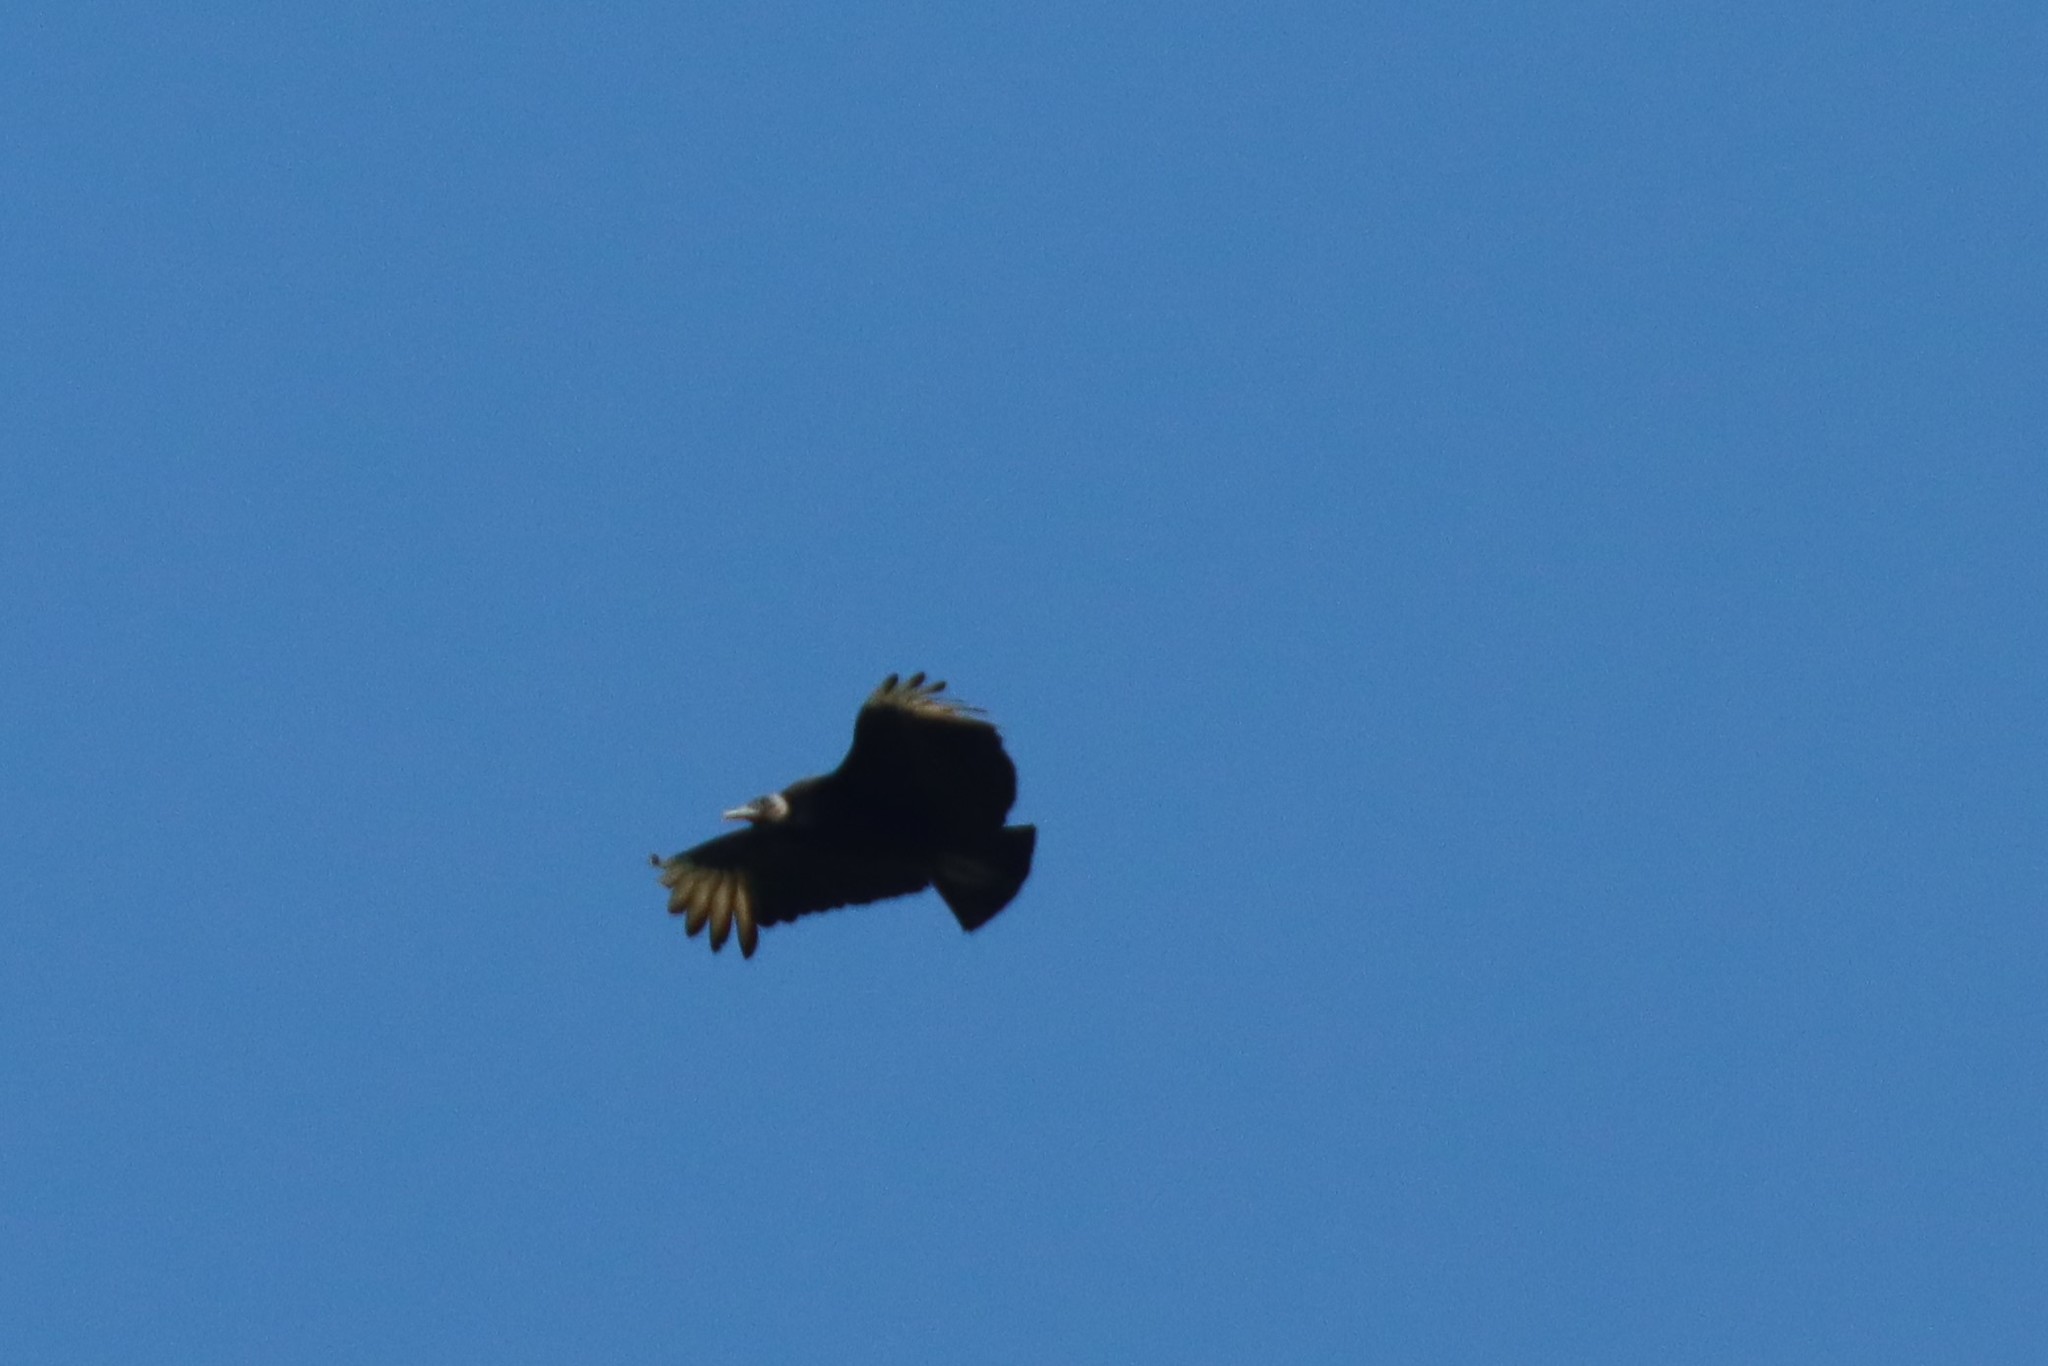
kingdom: Animalia
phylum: Chordata
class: Aves
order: Accipitriformes
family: Cathartidae
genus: Coragyps
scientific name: Coragyps atratus
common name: Black vulture
